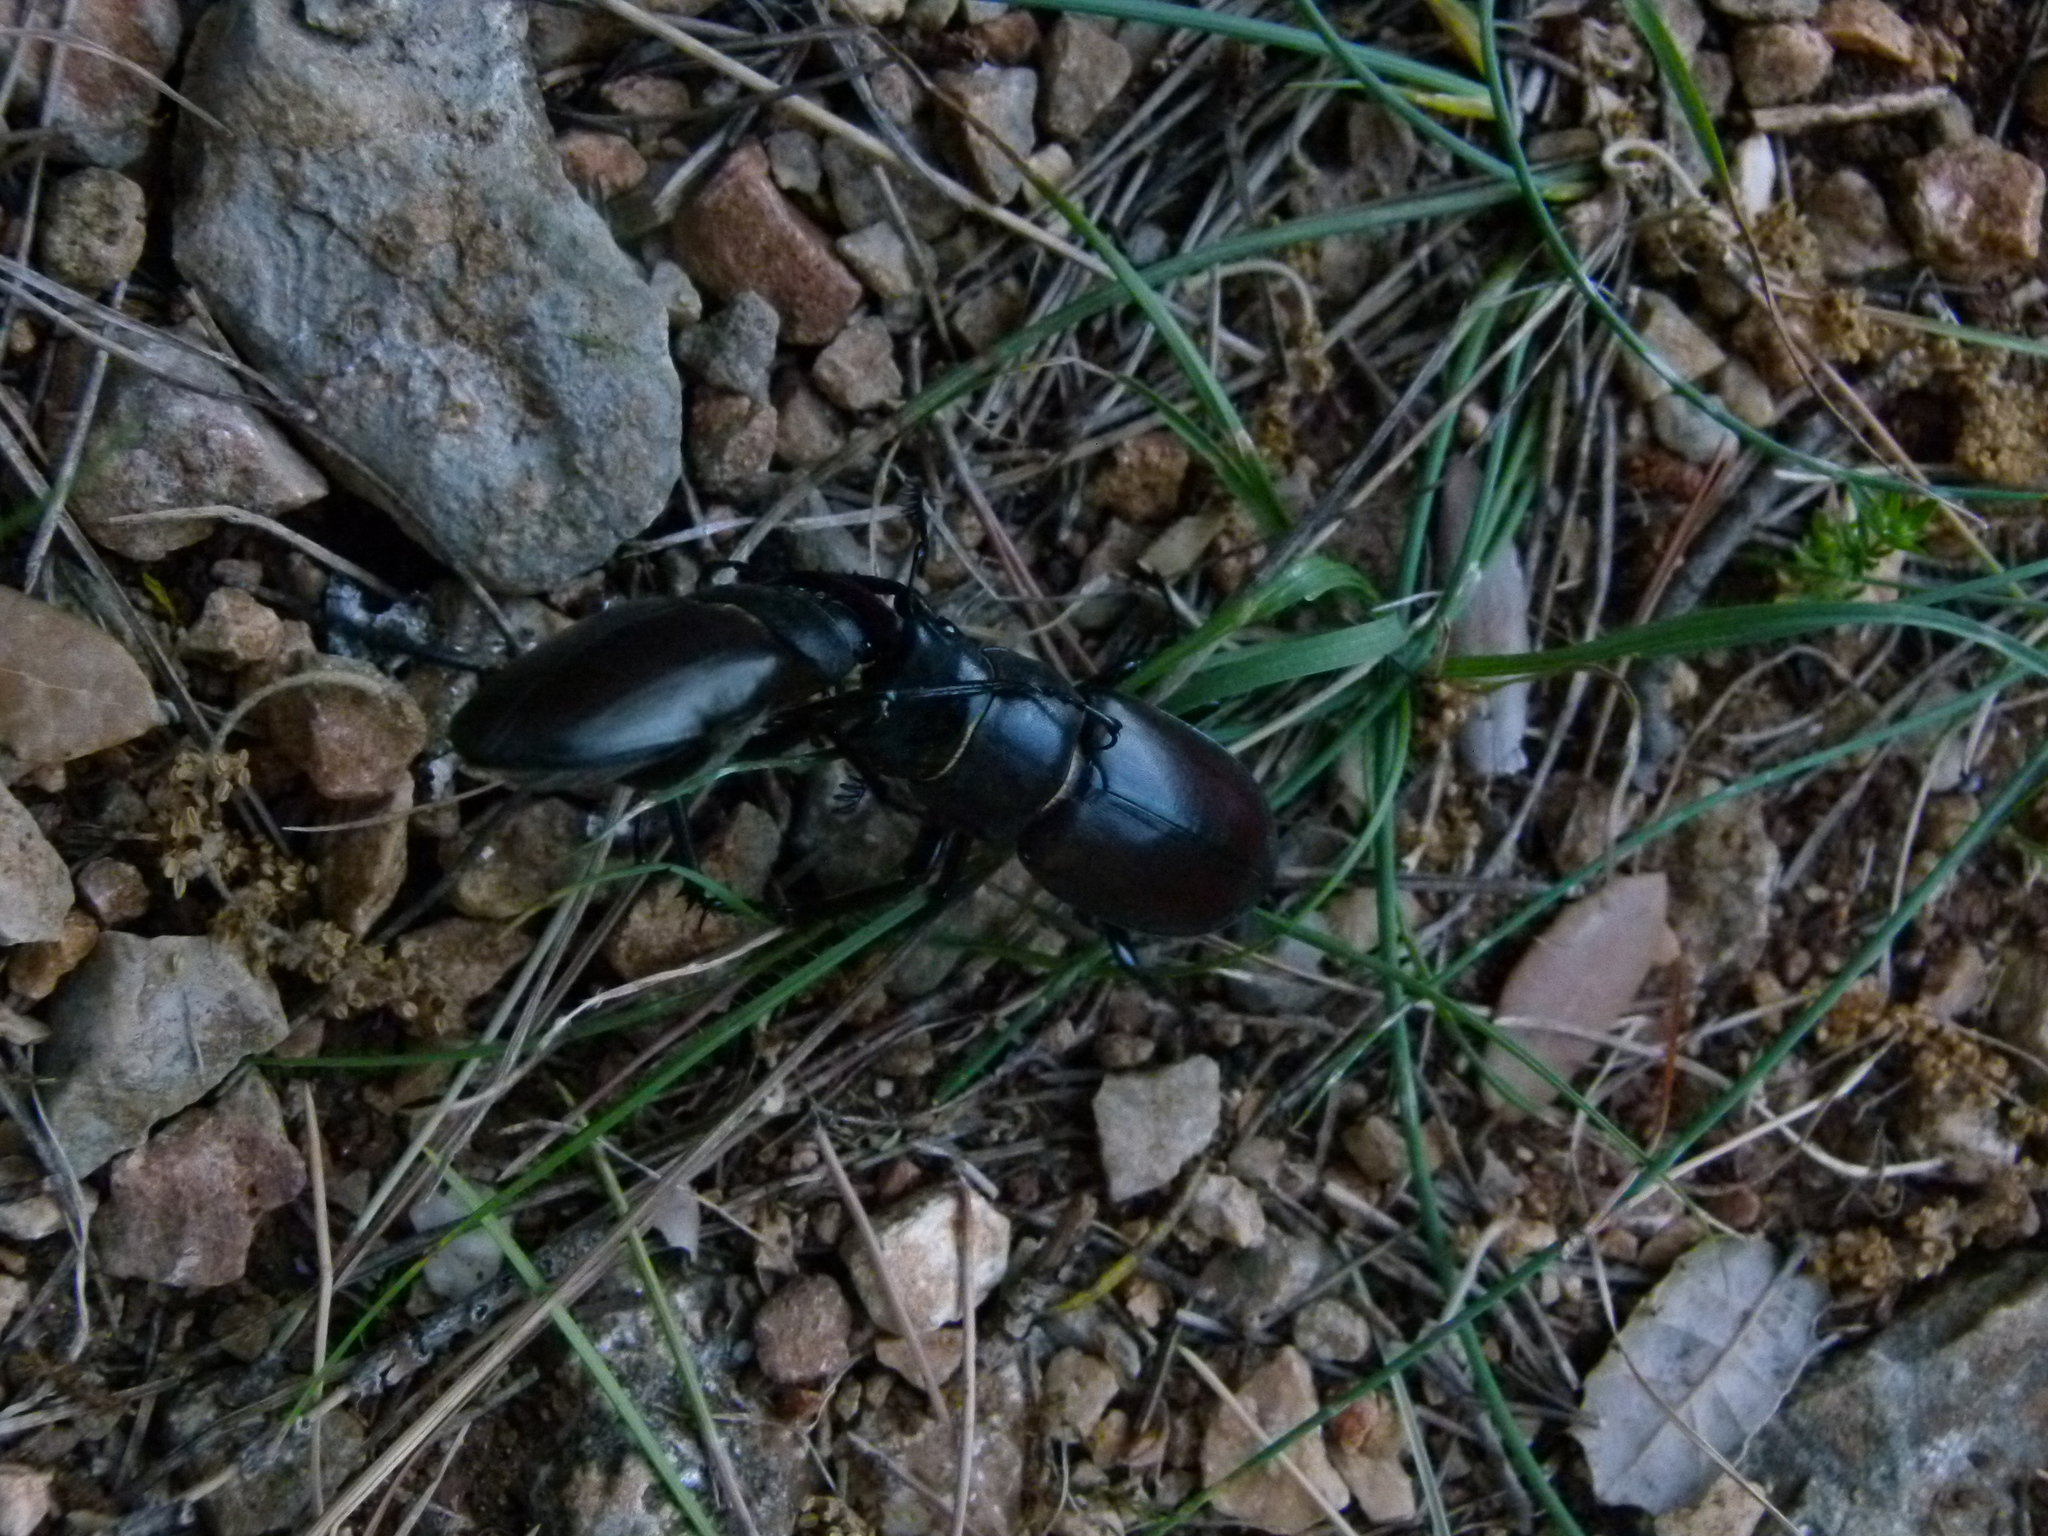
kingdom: Animalia
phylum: Arthropoda
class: Insecta
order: Coleoptera
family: Lucanidae
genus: Lucanus
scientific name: Lucanus cervus
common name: Stag beetle
